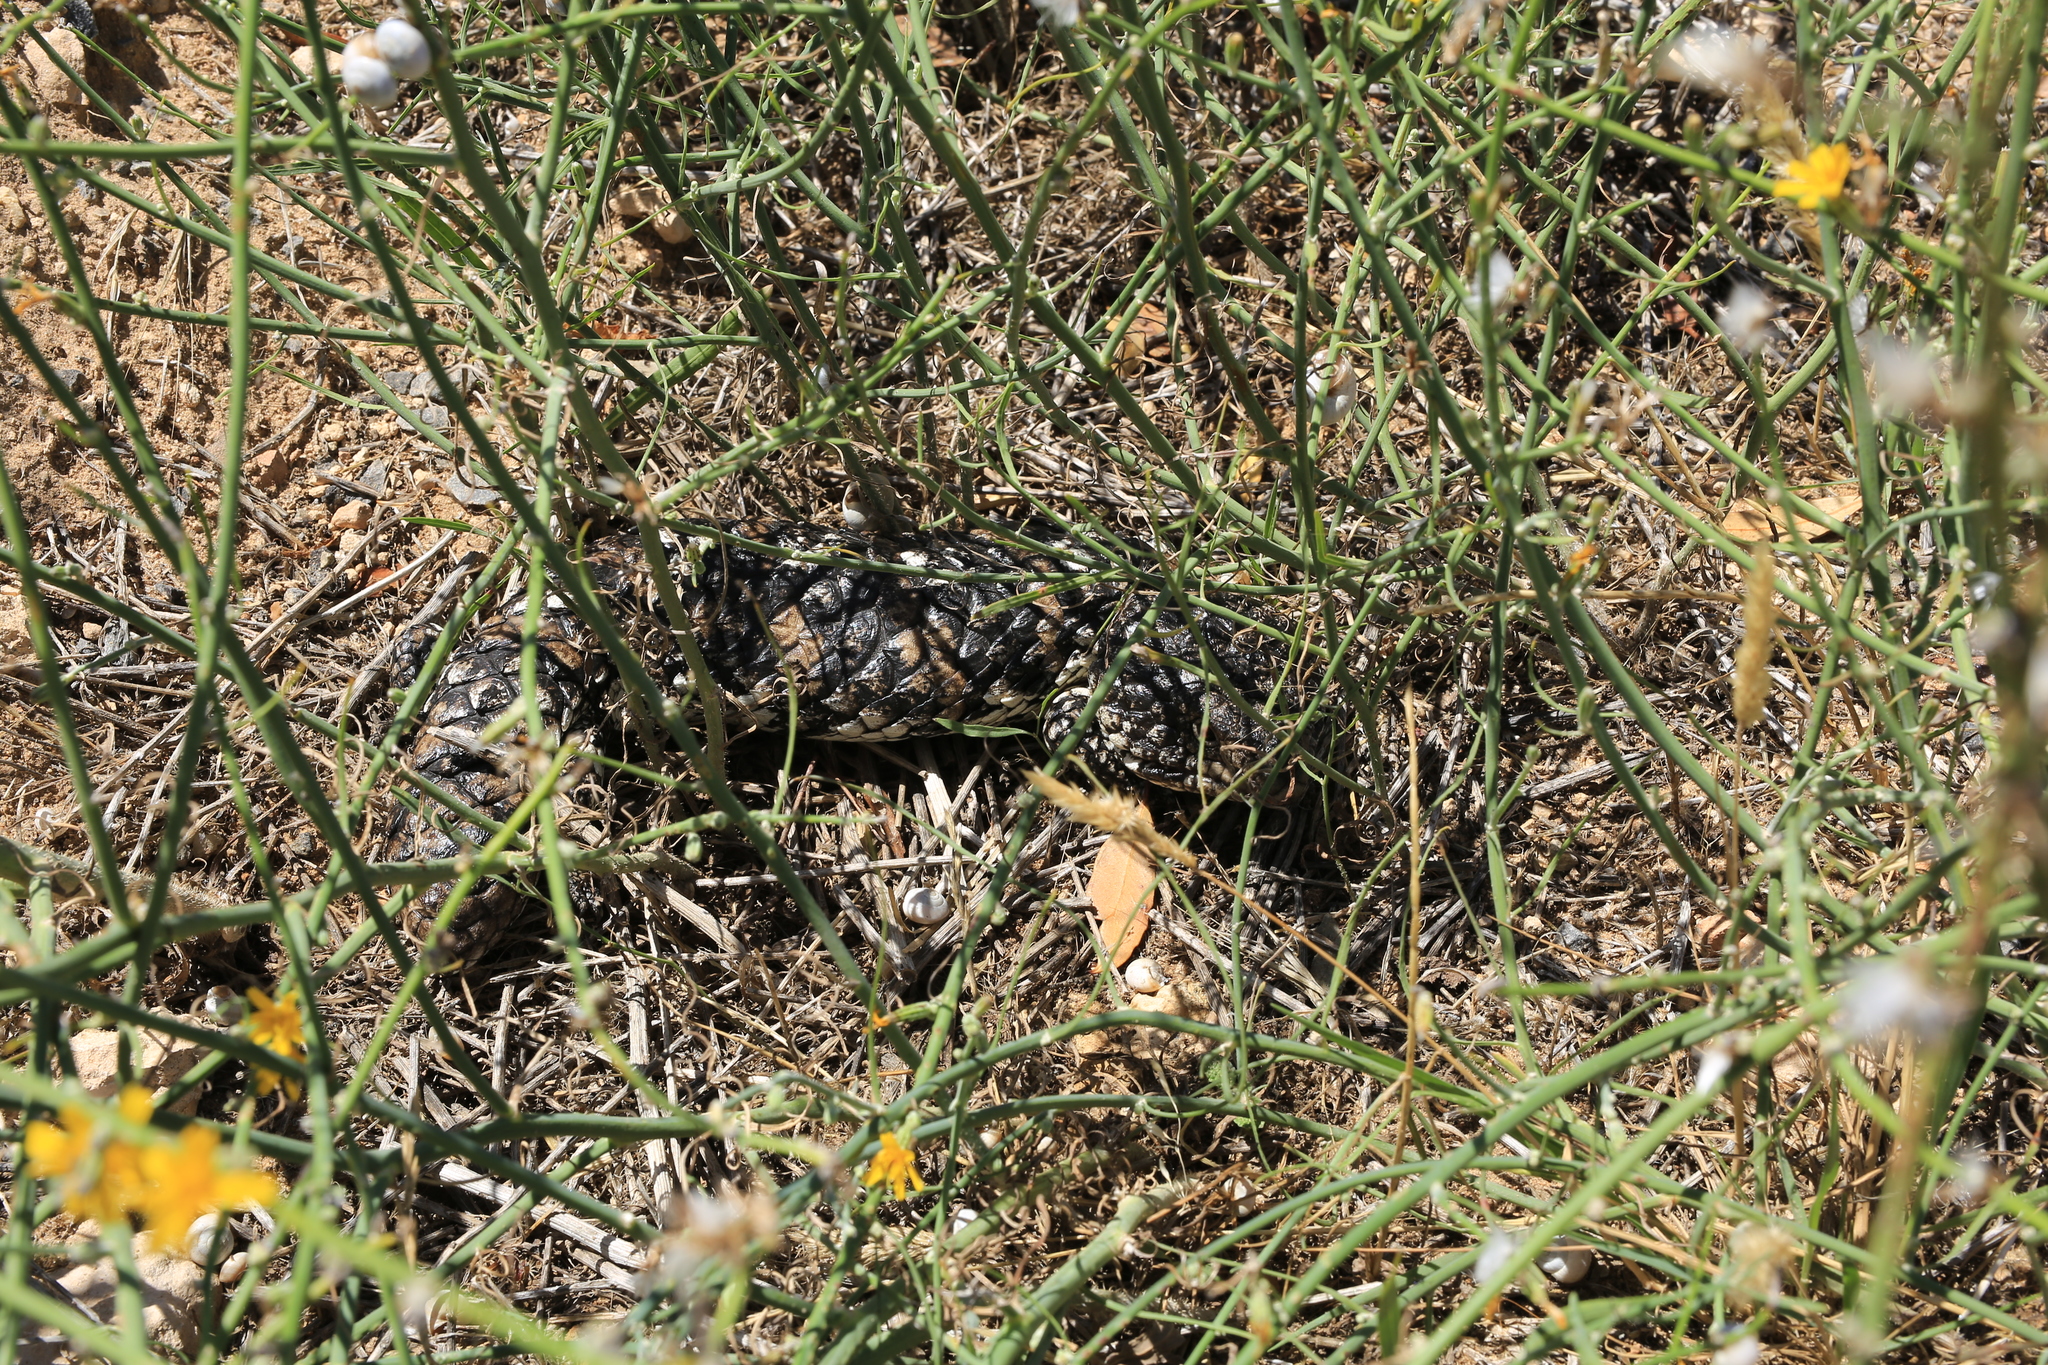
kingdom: Animalia
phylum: Chordata
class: Squamata
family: Scincidae
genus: Tiliqua
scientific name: Tiliqua rugosa
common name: Pinecone lizard
